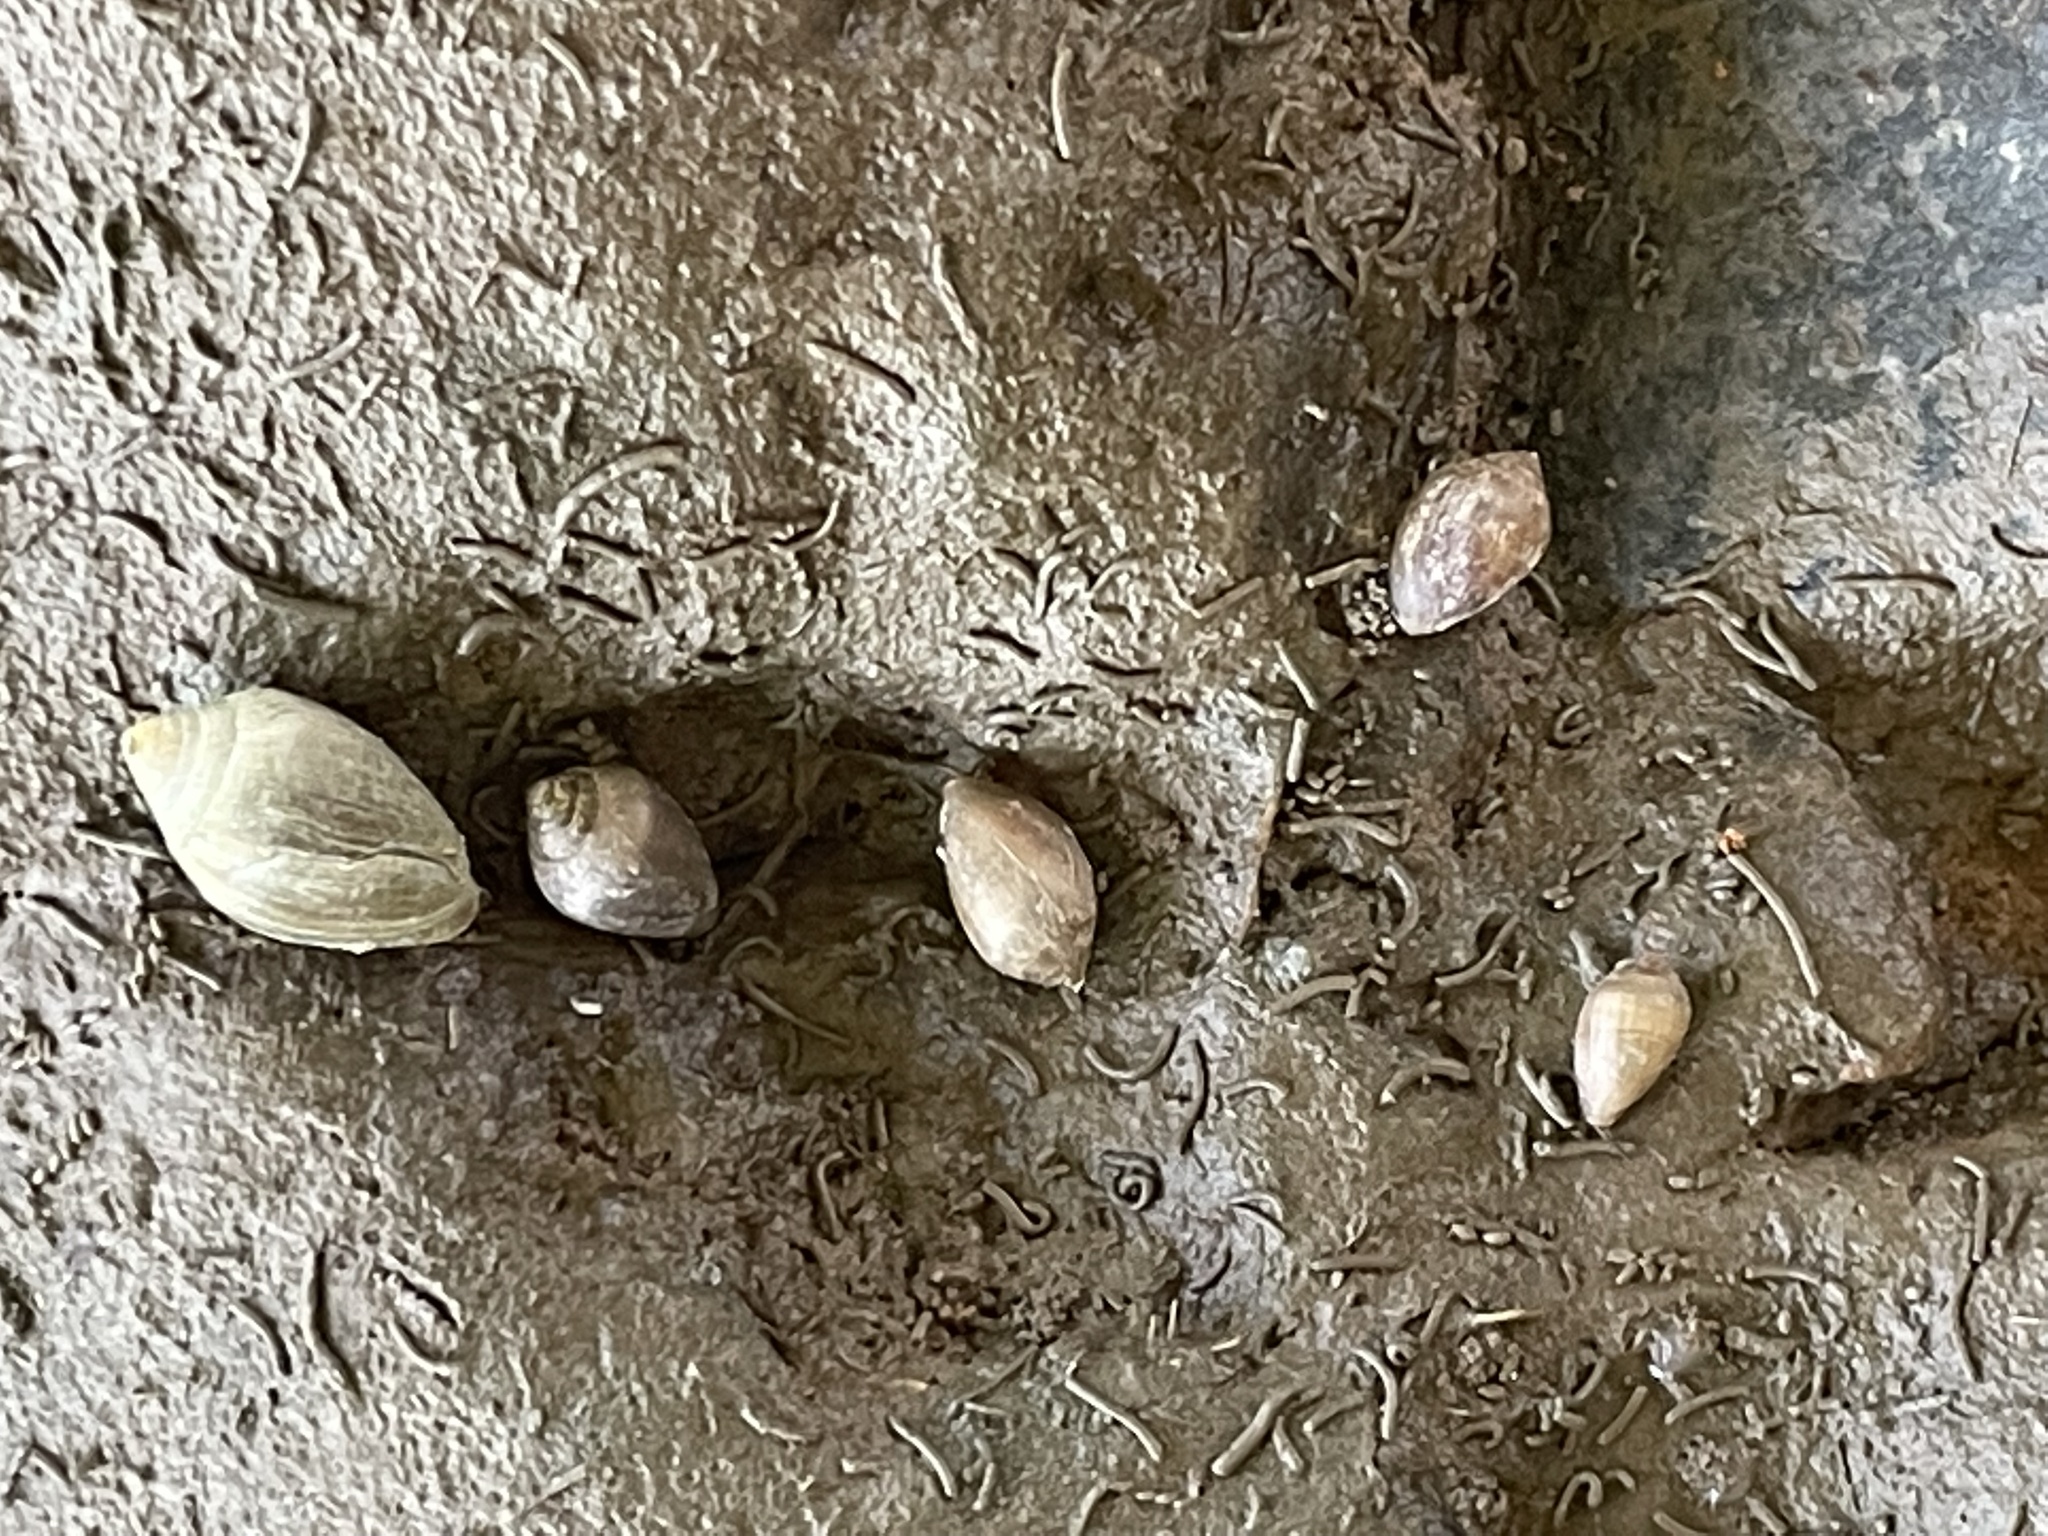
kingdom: Animalia
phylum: Mollusca
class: Gastropoda
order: Ellobiida
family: Ellobiidae
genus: Melampus
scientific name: Melampus bidentatus
